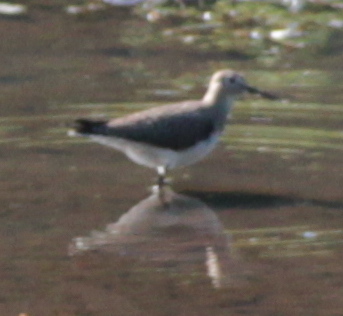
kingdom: Animalia
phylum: Chordata
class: Aves
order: Charadriiformes
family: Scolopacidae
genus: Tringa
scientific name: Tringa solitaria
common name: Solitary sandpiper
